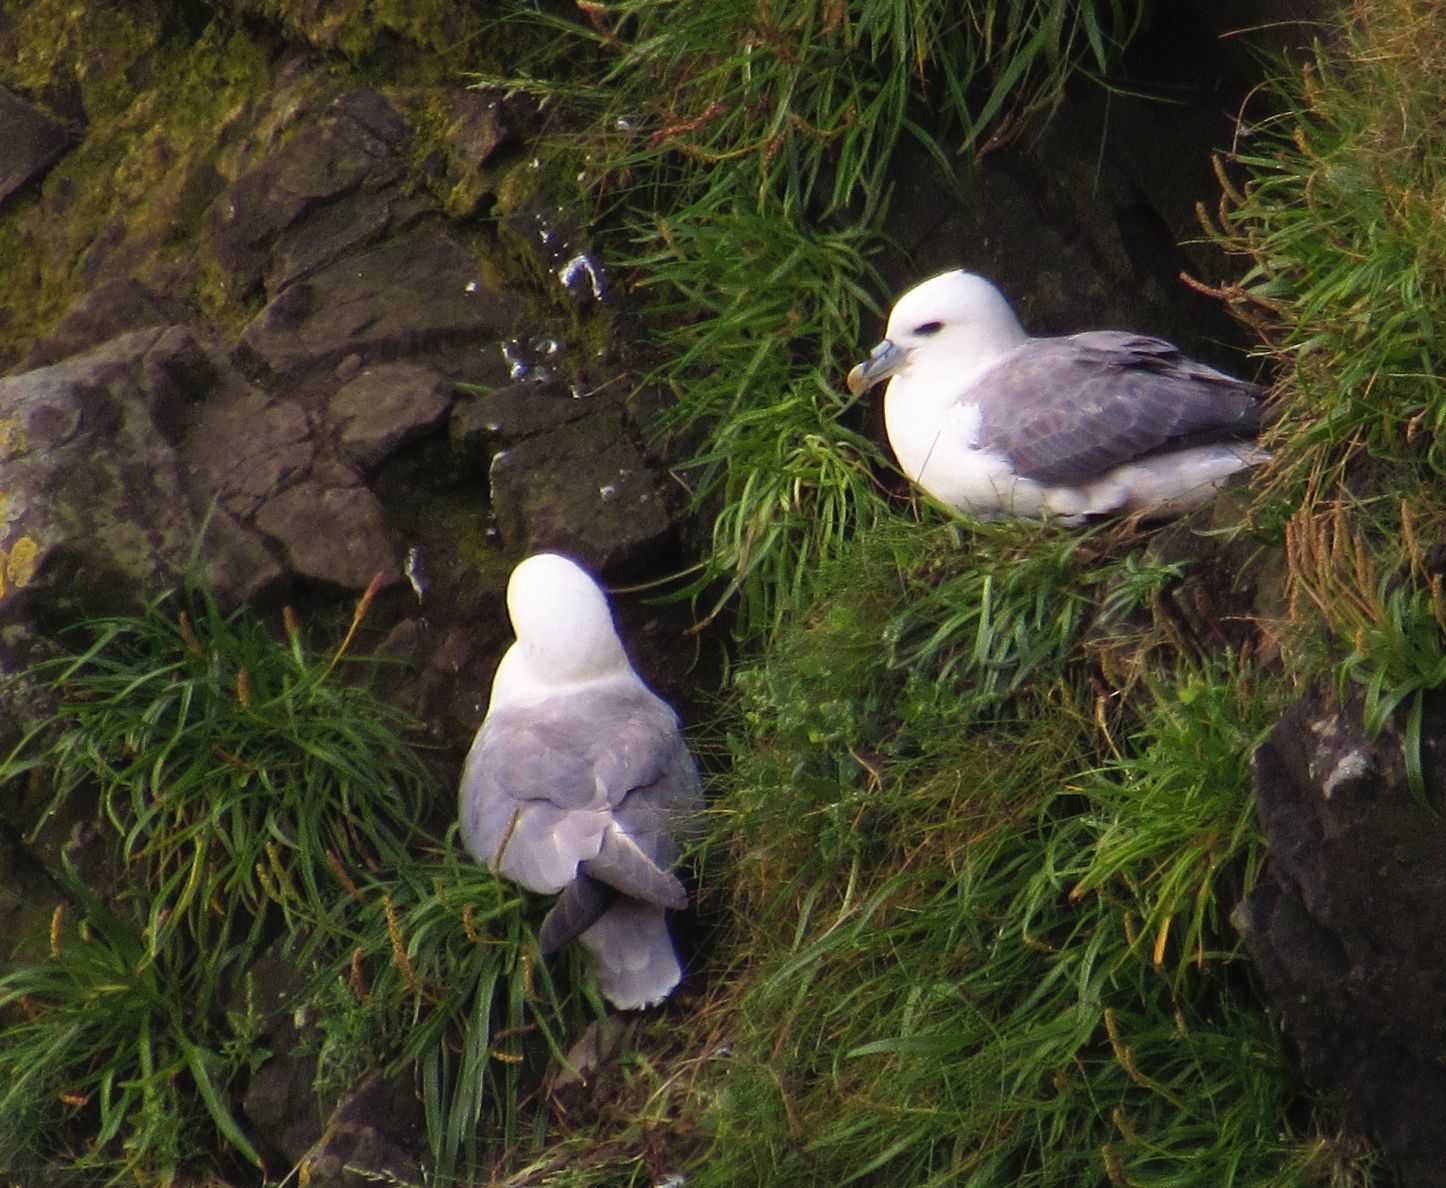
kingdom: Animalia
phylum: Chordata
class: Aves
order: Procellariiformes
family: Procellariidae
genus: Fulmarus
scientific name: Fulmarus glacialis
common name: Northern fulmar
